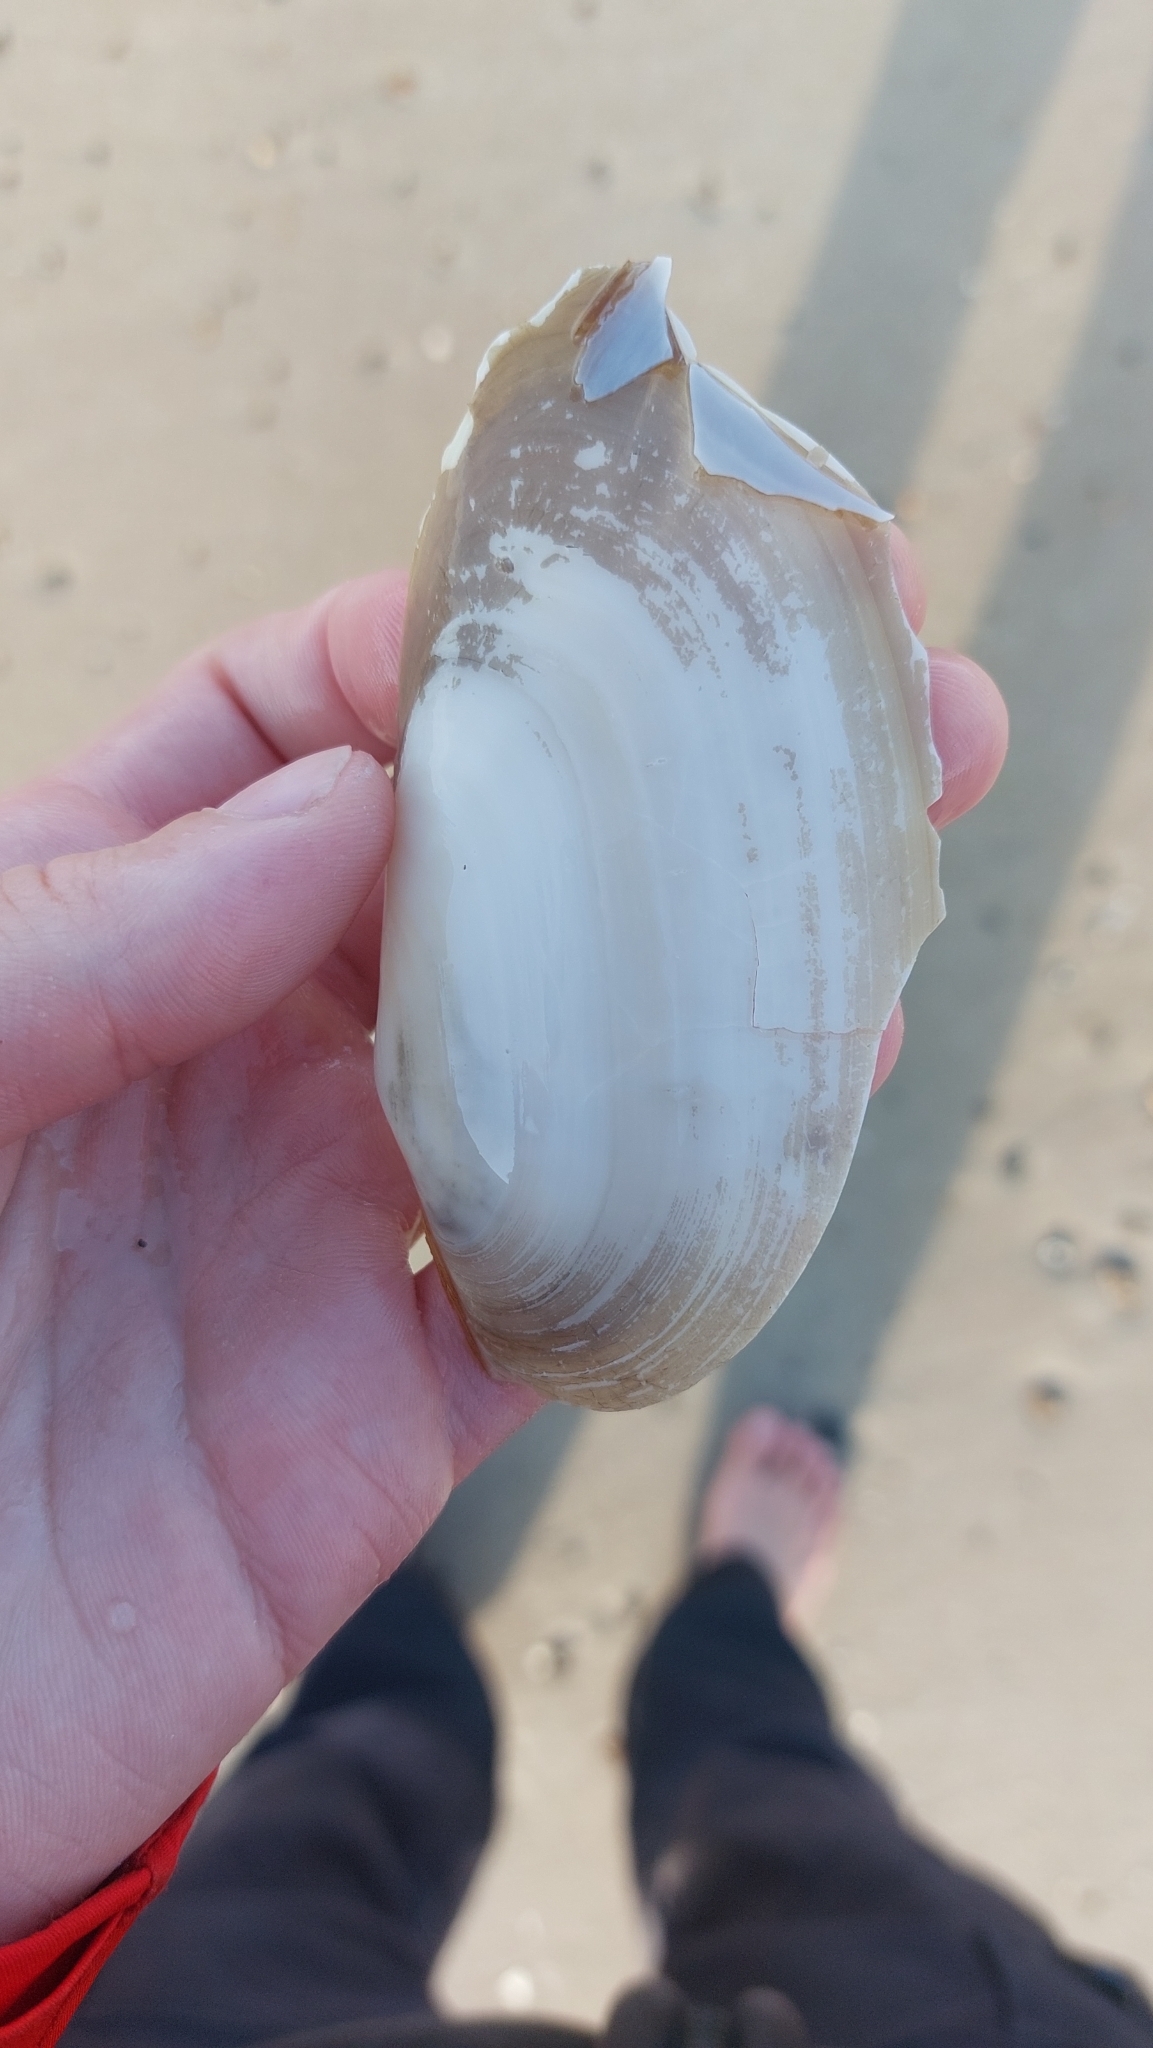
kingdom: Animalia
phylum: Mollusca
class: Bivalvia
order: Venerida
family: Mactridae
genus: Lutraria
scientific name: Lutraria lutraria
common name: Common otter shell
